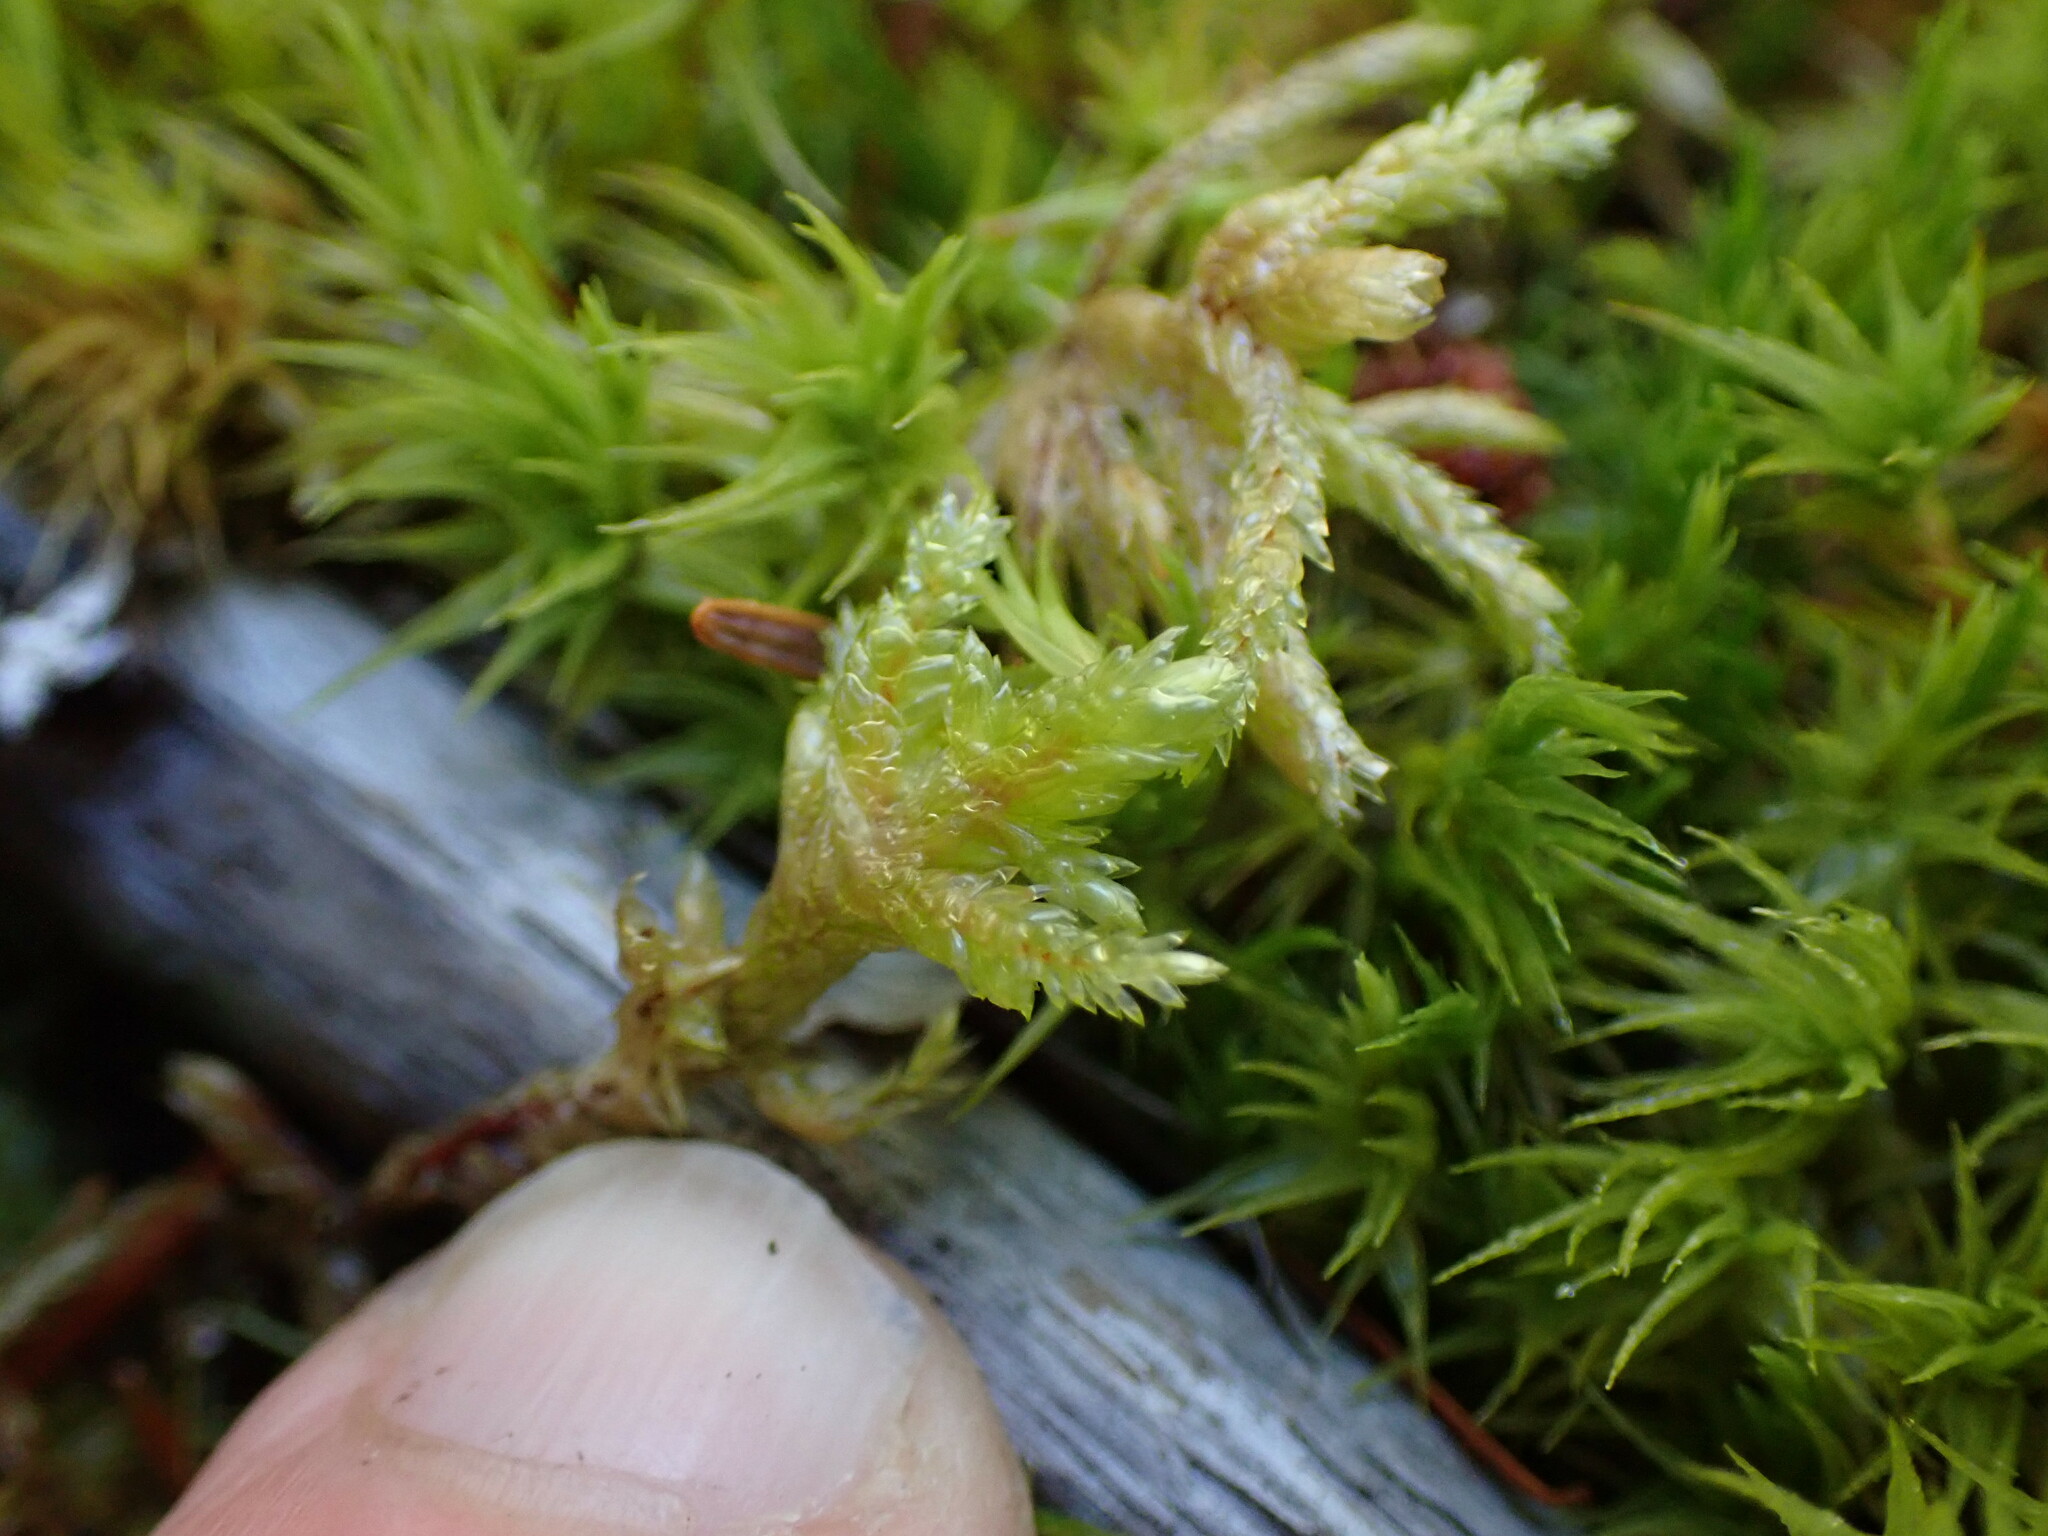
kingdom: Plantae
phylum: Bryophyta
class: Bryopsida
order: Hypnales
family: Hylocomiaceae
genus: Pleurozium
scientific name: Pleurozium schreberi
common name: Red-stemmed feather moss
